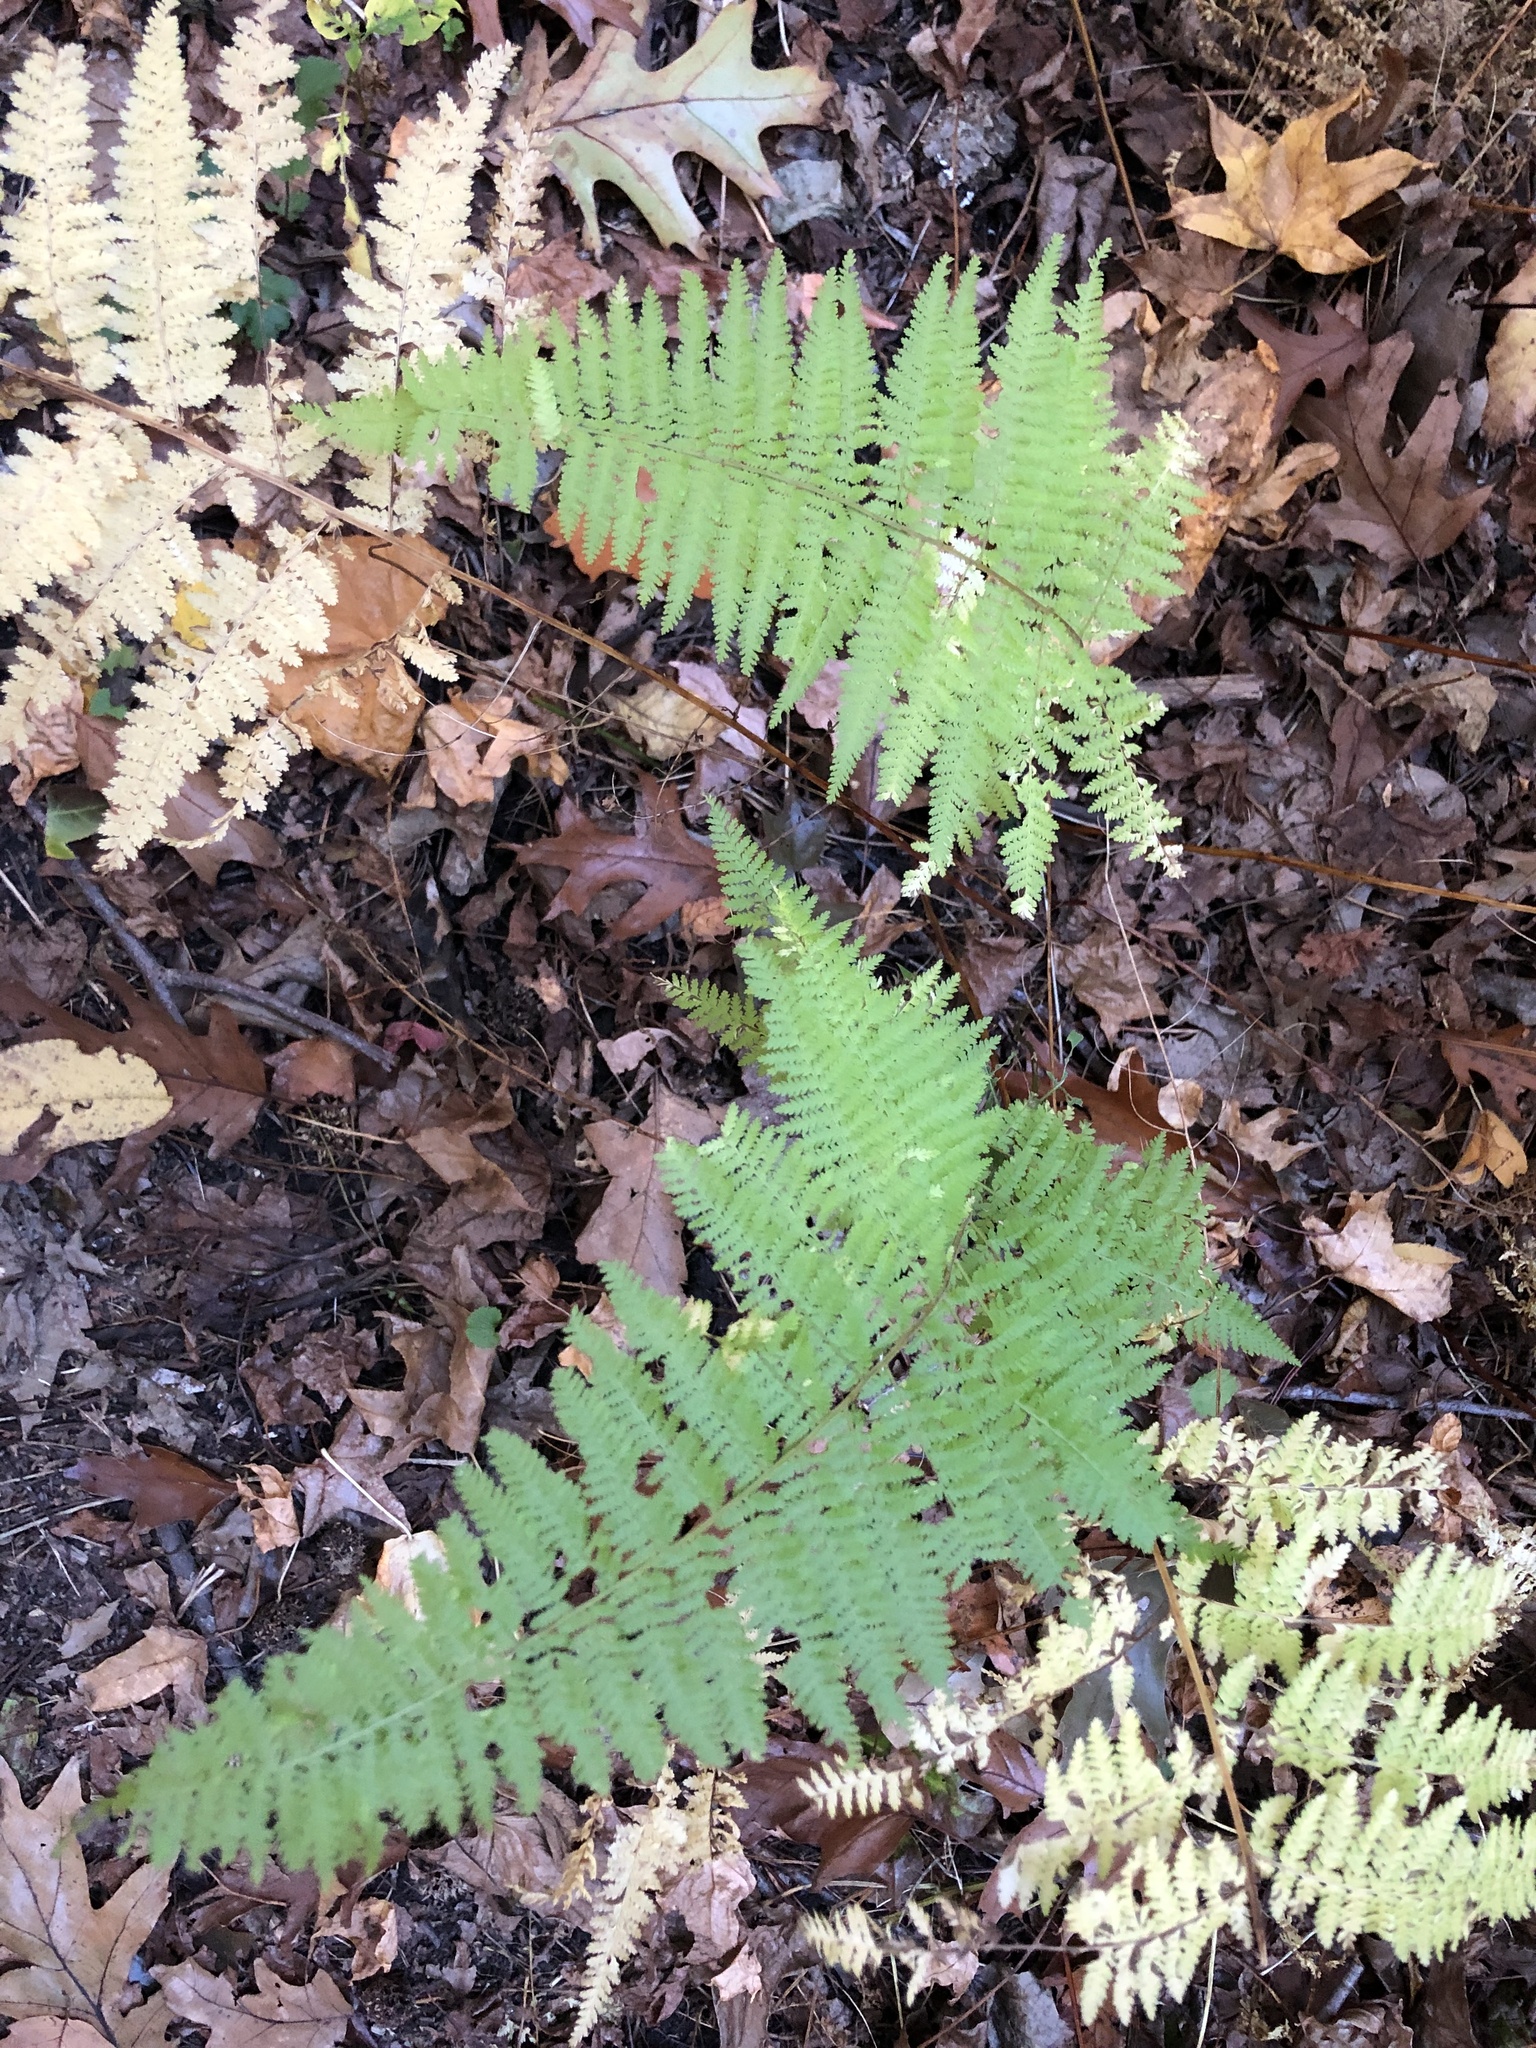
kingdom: Plantae
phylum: Tracheophyta
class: Polypodiopsida
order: Polypodiales
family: Dennstaedtiaceae
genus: Sitobolium
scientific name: Sitobolium punctilobum
